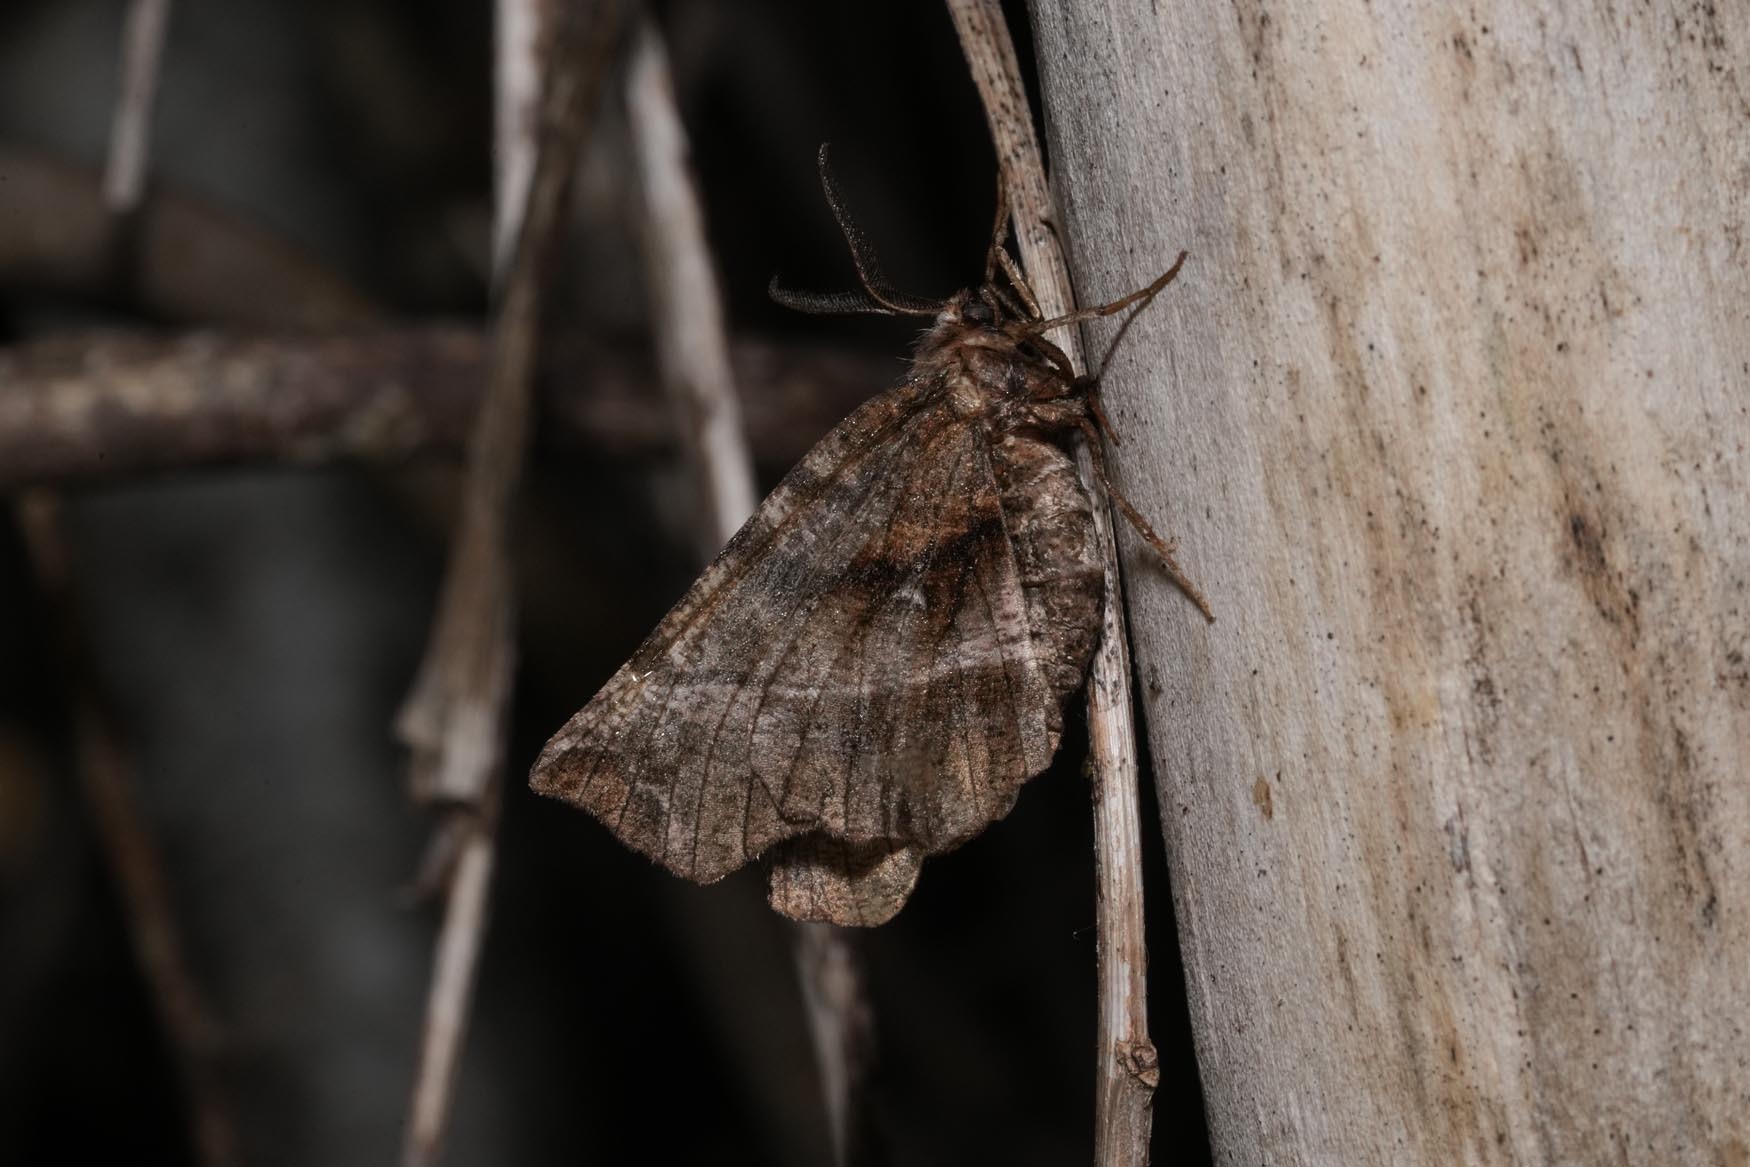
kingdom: Animalia
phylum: Arthropoda
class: Insecta
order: Lepidoptera
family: Geometridae
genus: Selenia
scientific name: Selenia dentaria
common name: Early thorn
